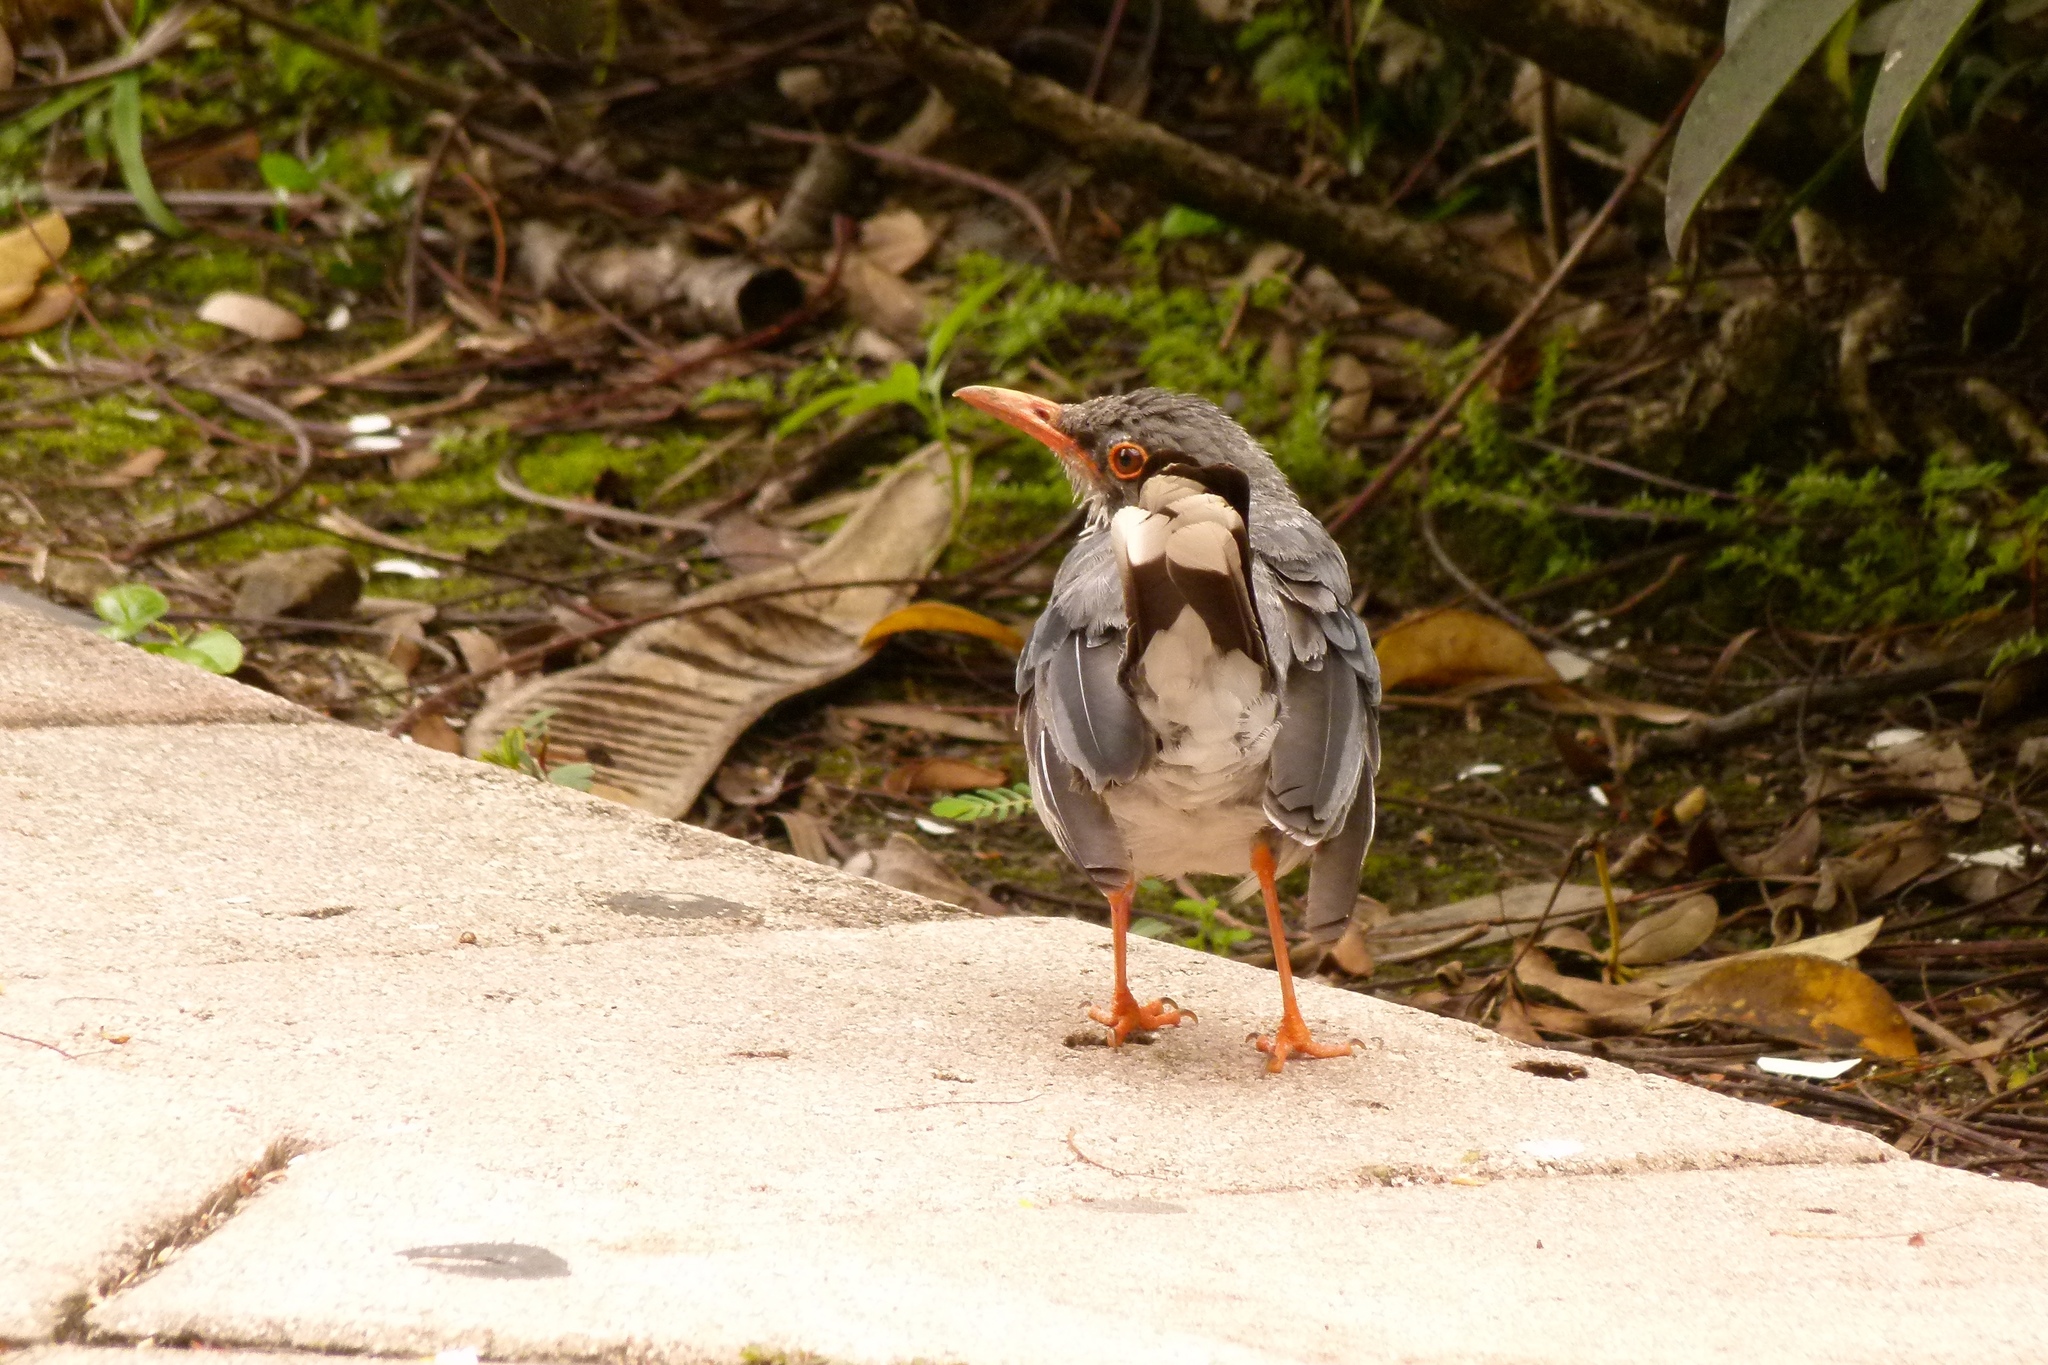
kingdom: Animalia
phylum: Chordata
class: Aves
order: Passeriformes
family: Turdidae
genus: Turdus
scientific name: Turdus plumbeus
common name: Red-legged thrush
